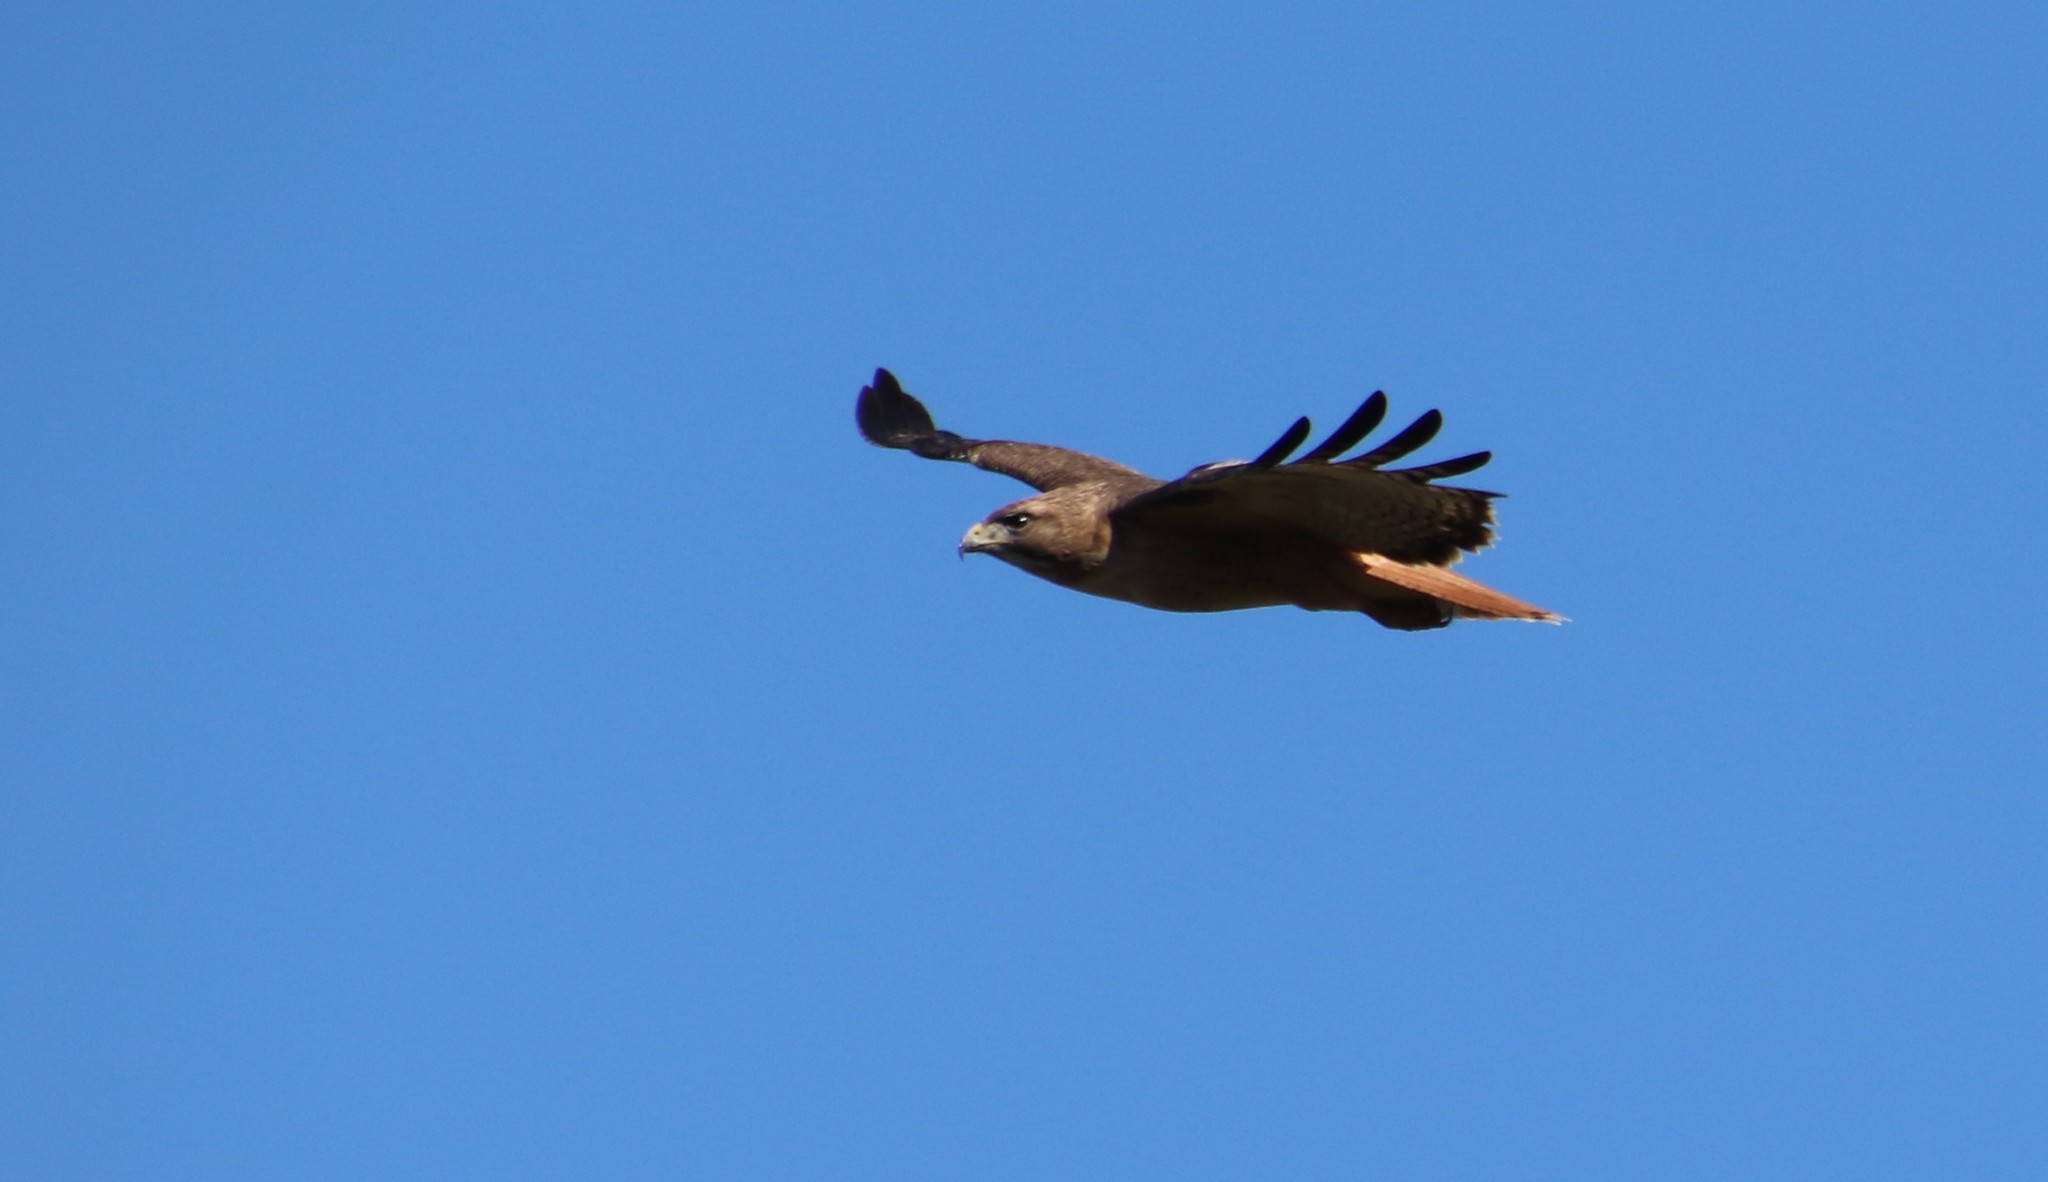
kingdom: Animalia
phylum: Chordata
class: Aves
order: Accipitriformes
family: Accipitridae
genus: Buteo
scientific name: Buteo jamaicensis
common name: Red-tailed hawk
